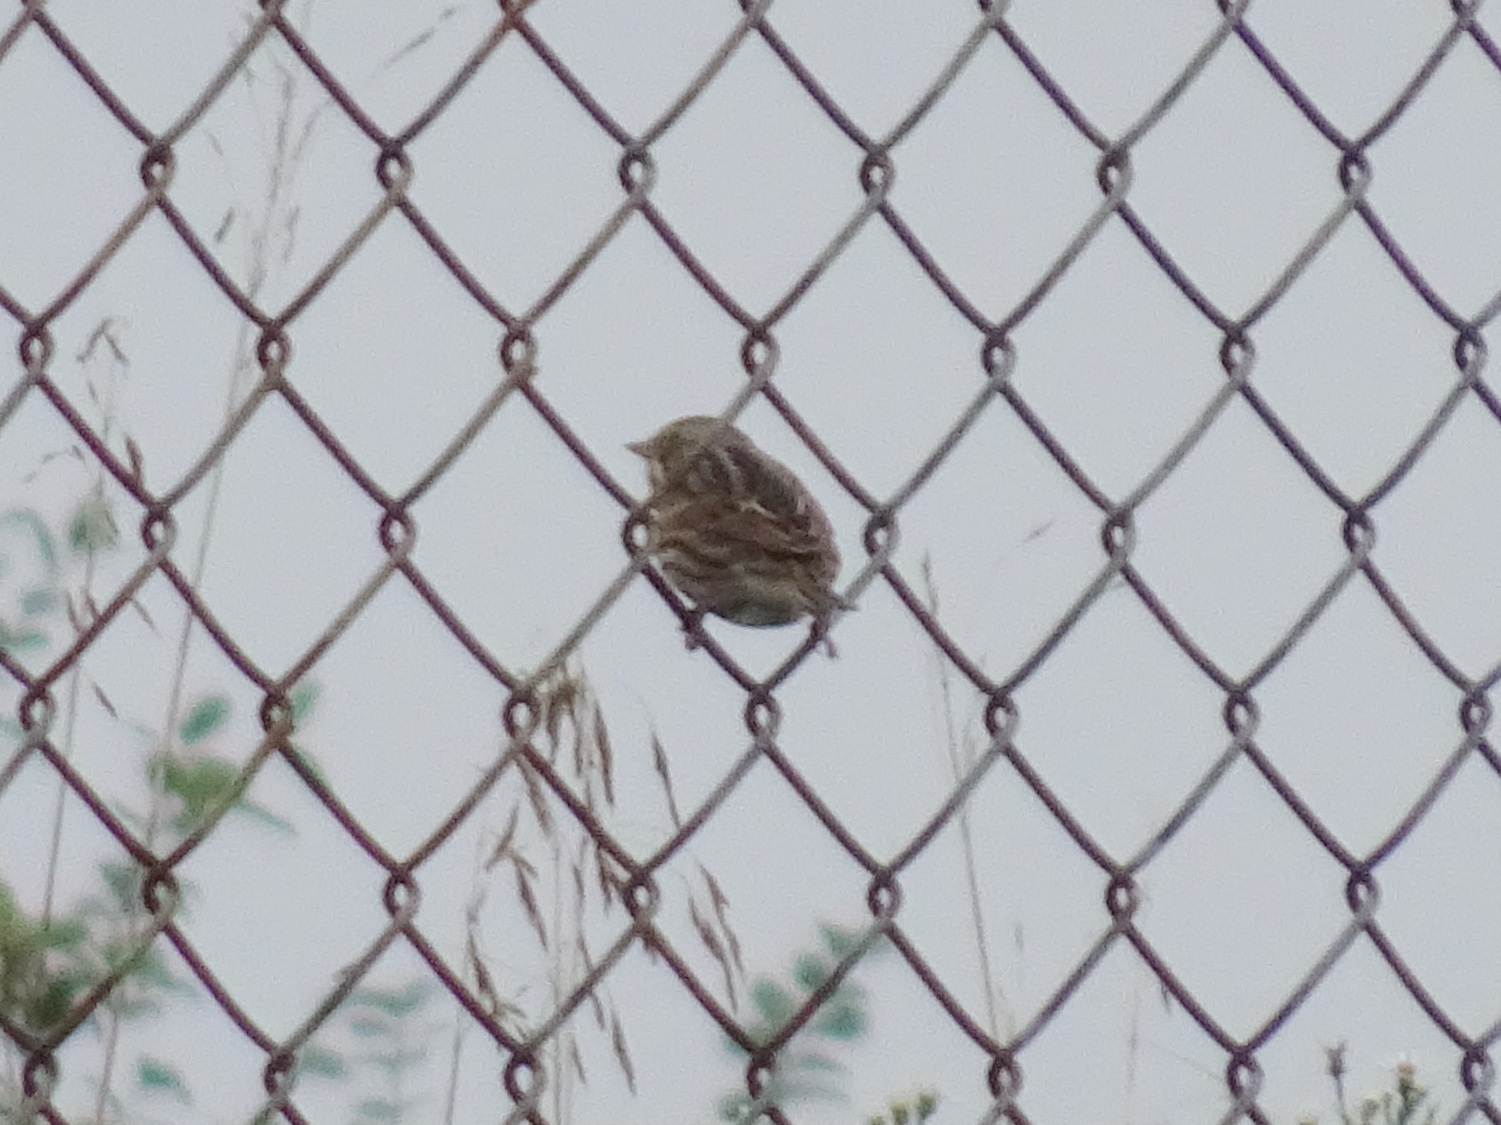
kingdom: Animalia
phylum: Chordata
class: Aves
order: Passeriformes
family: Passerellidae
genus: Passerculus
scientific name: Passerculus sandwichensis
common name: Savannah sparrow
